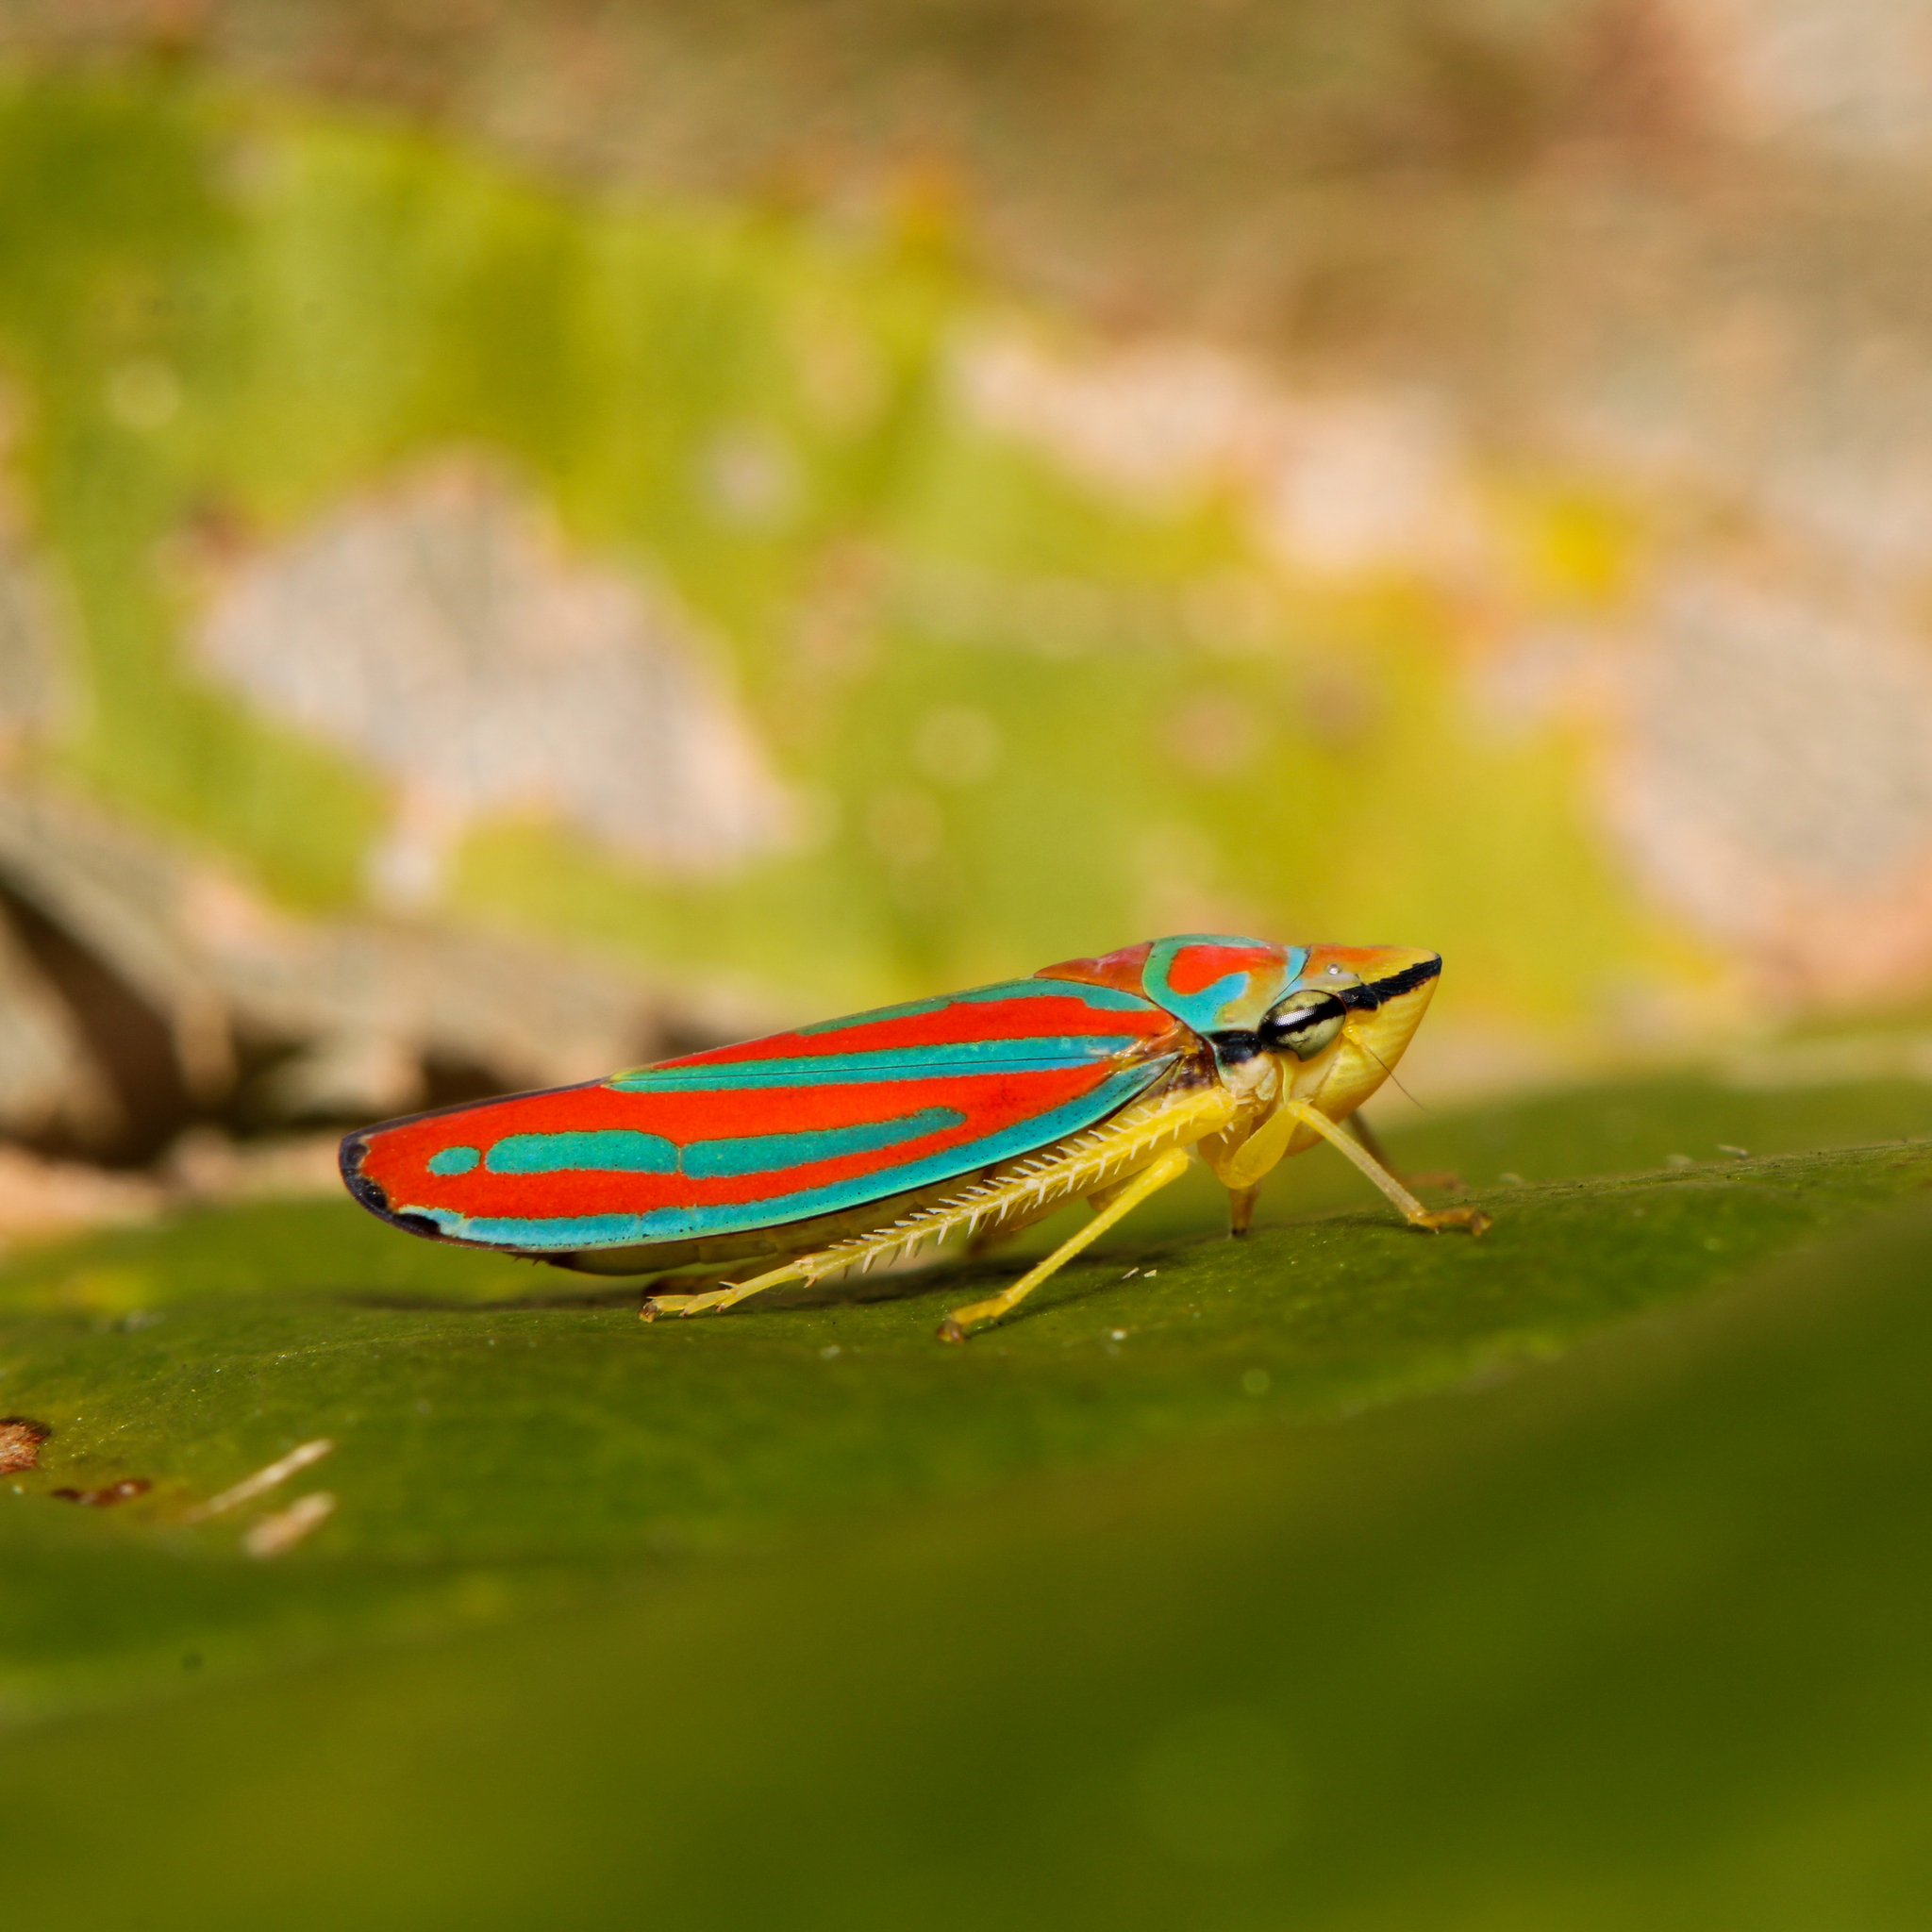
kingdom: Animalia
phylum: Arthropoda
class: Insecta
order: Hemiptera
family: Cicadellidae
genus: Graphocephala
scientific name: Graphocephala coccinea
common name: Candy-striped leafhopper
